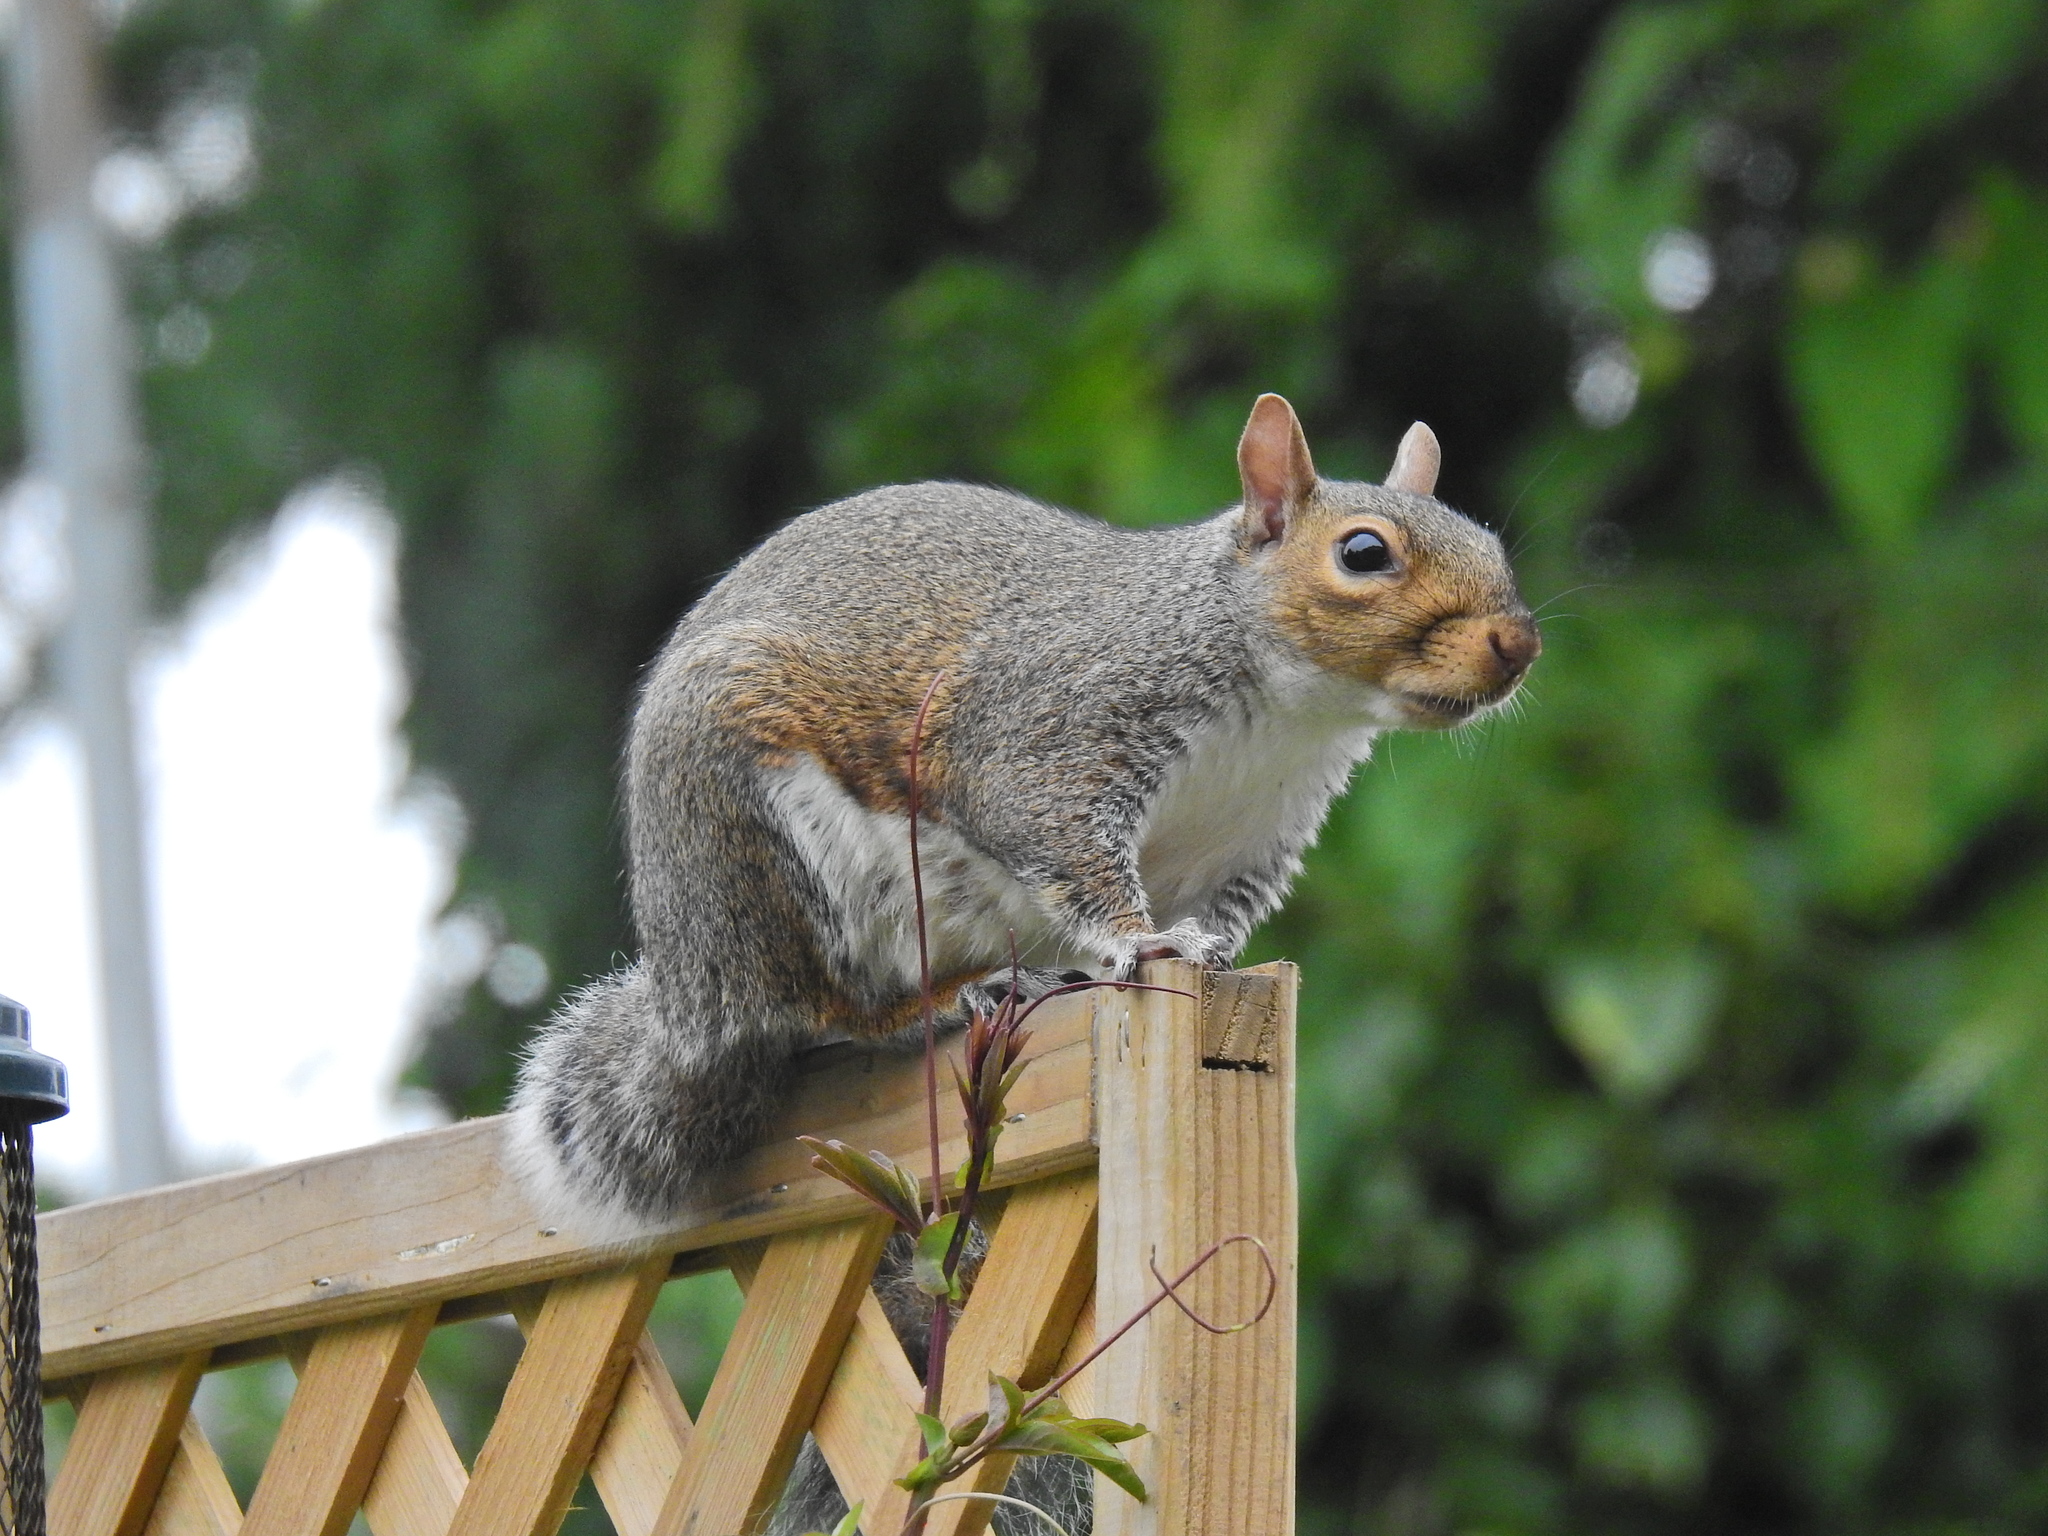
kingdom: Animalia
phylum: Chordata
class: Mammalia
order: Rodentia
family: Sciuridae
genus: Sciurus
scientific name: Sciurus carolinensis
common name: Eastern gray squirrel
